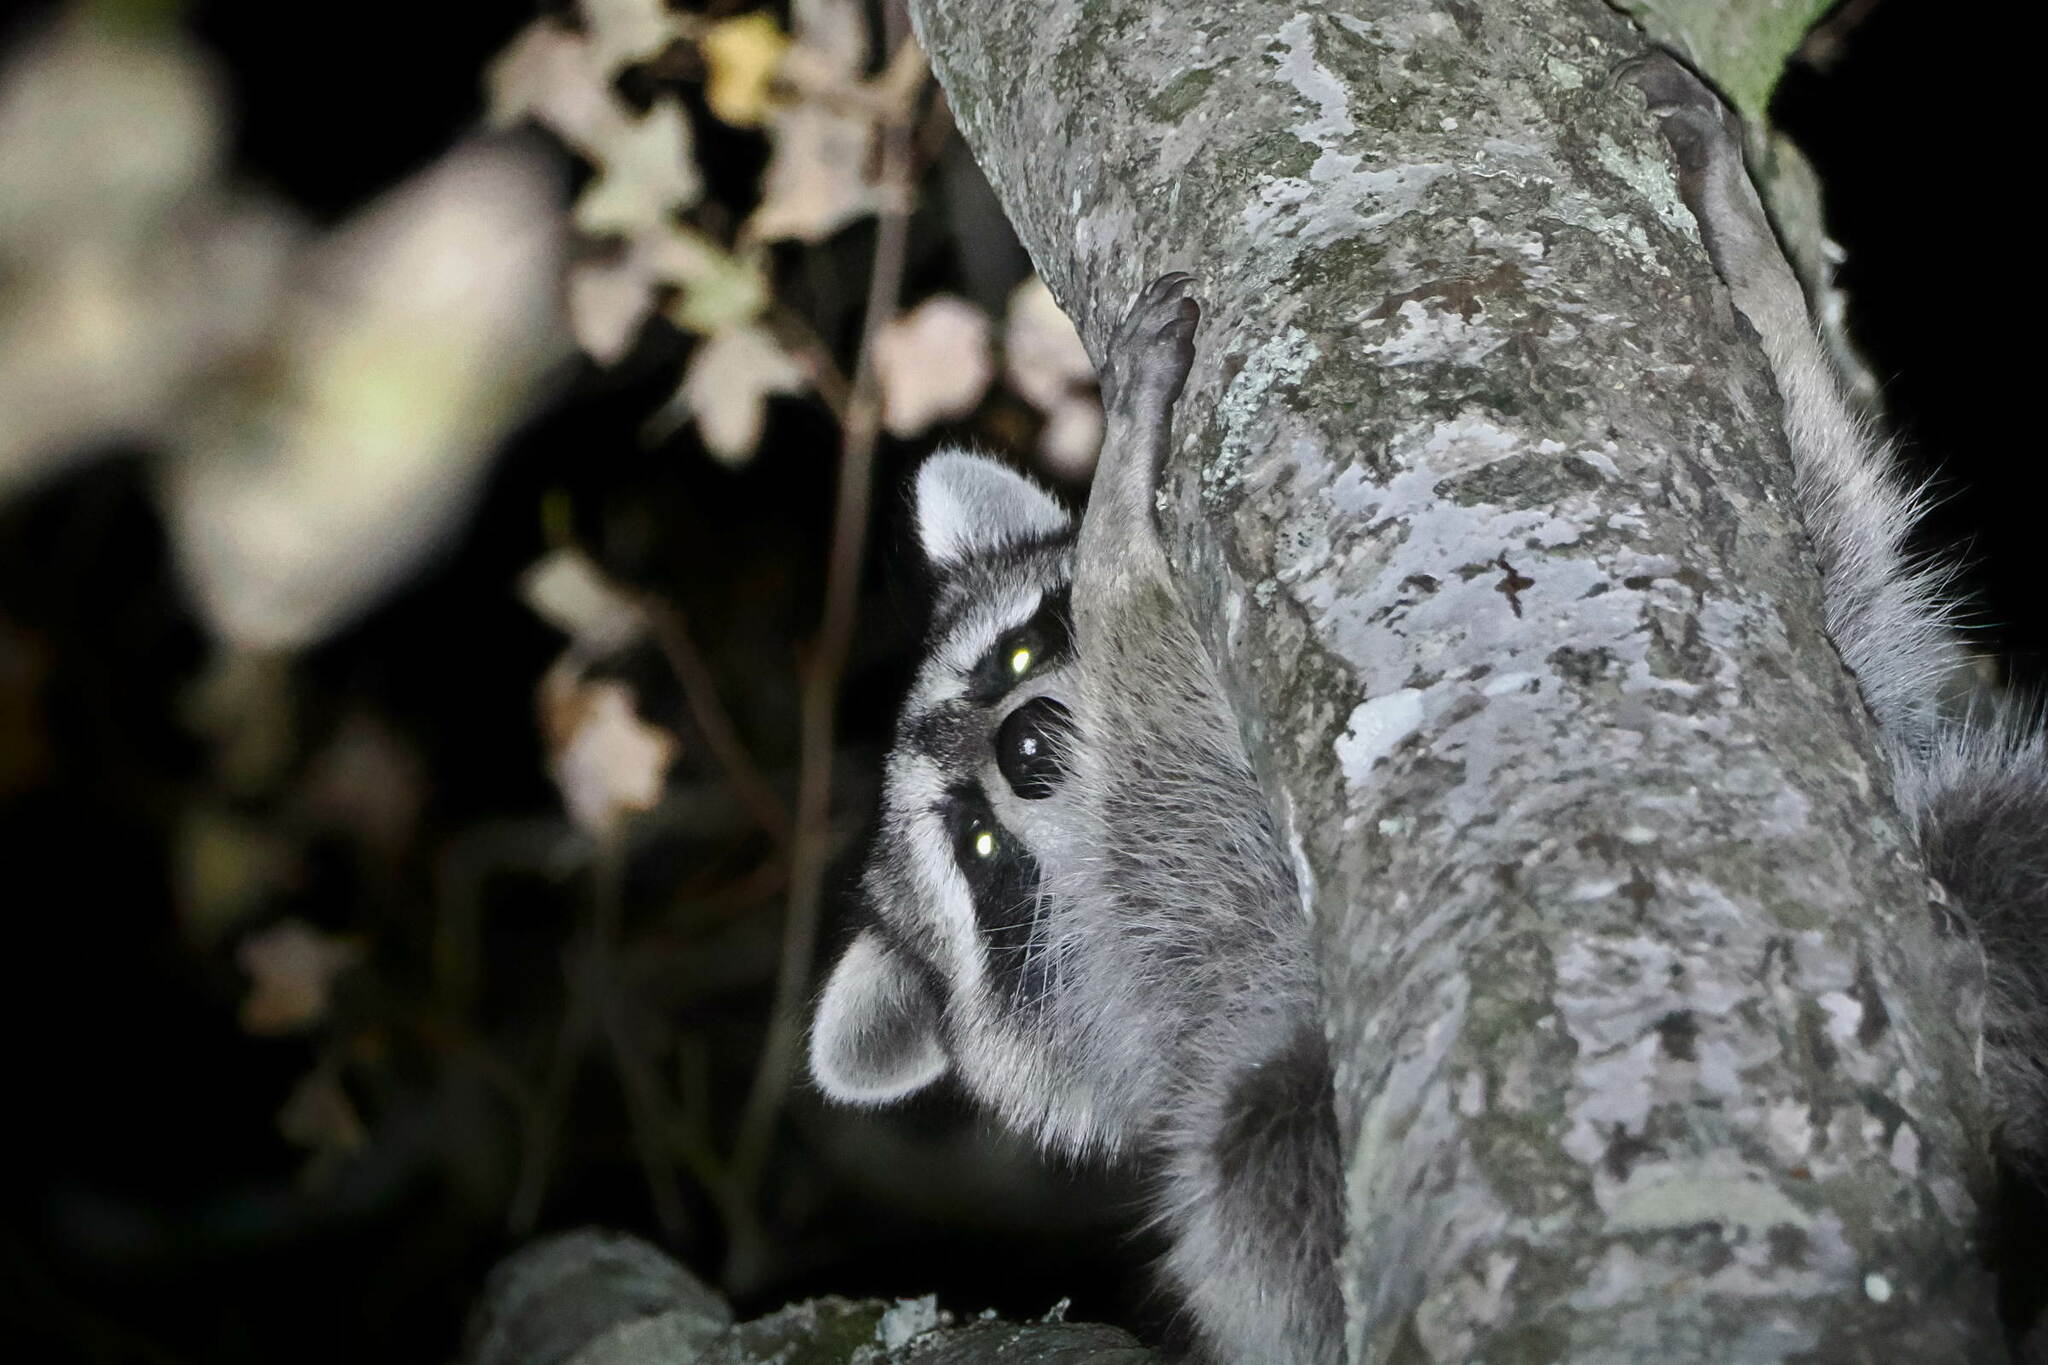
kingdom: Animalia
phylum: Chordata
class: Mammalia
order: Carnivora
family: Procyonidae
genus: Procyon
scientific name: Procyon lotor
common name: Raccoon
